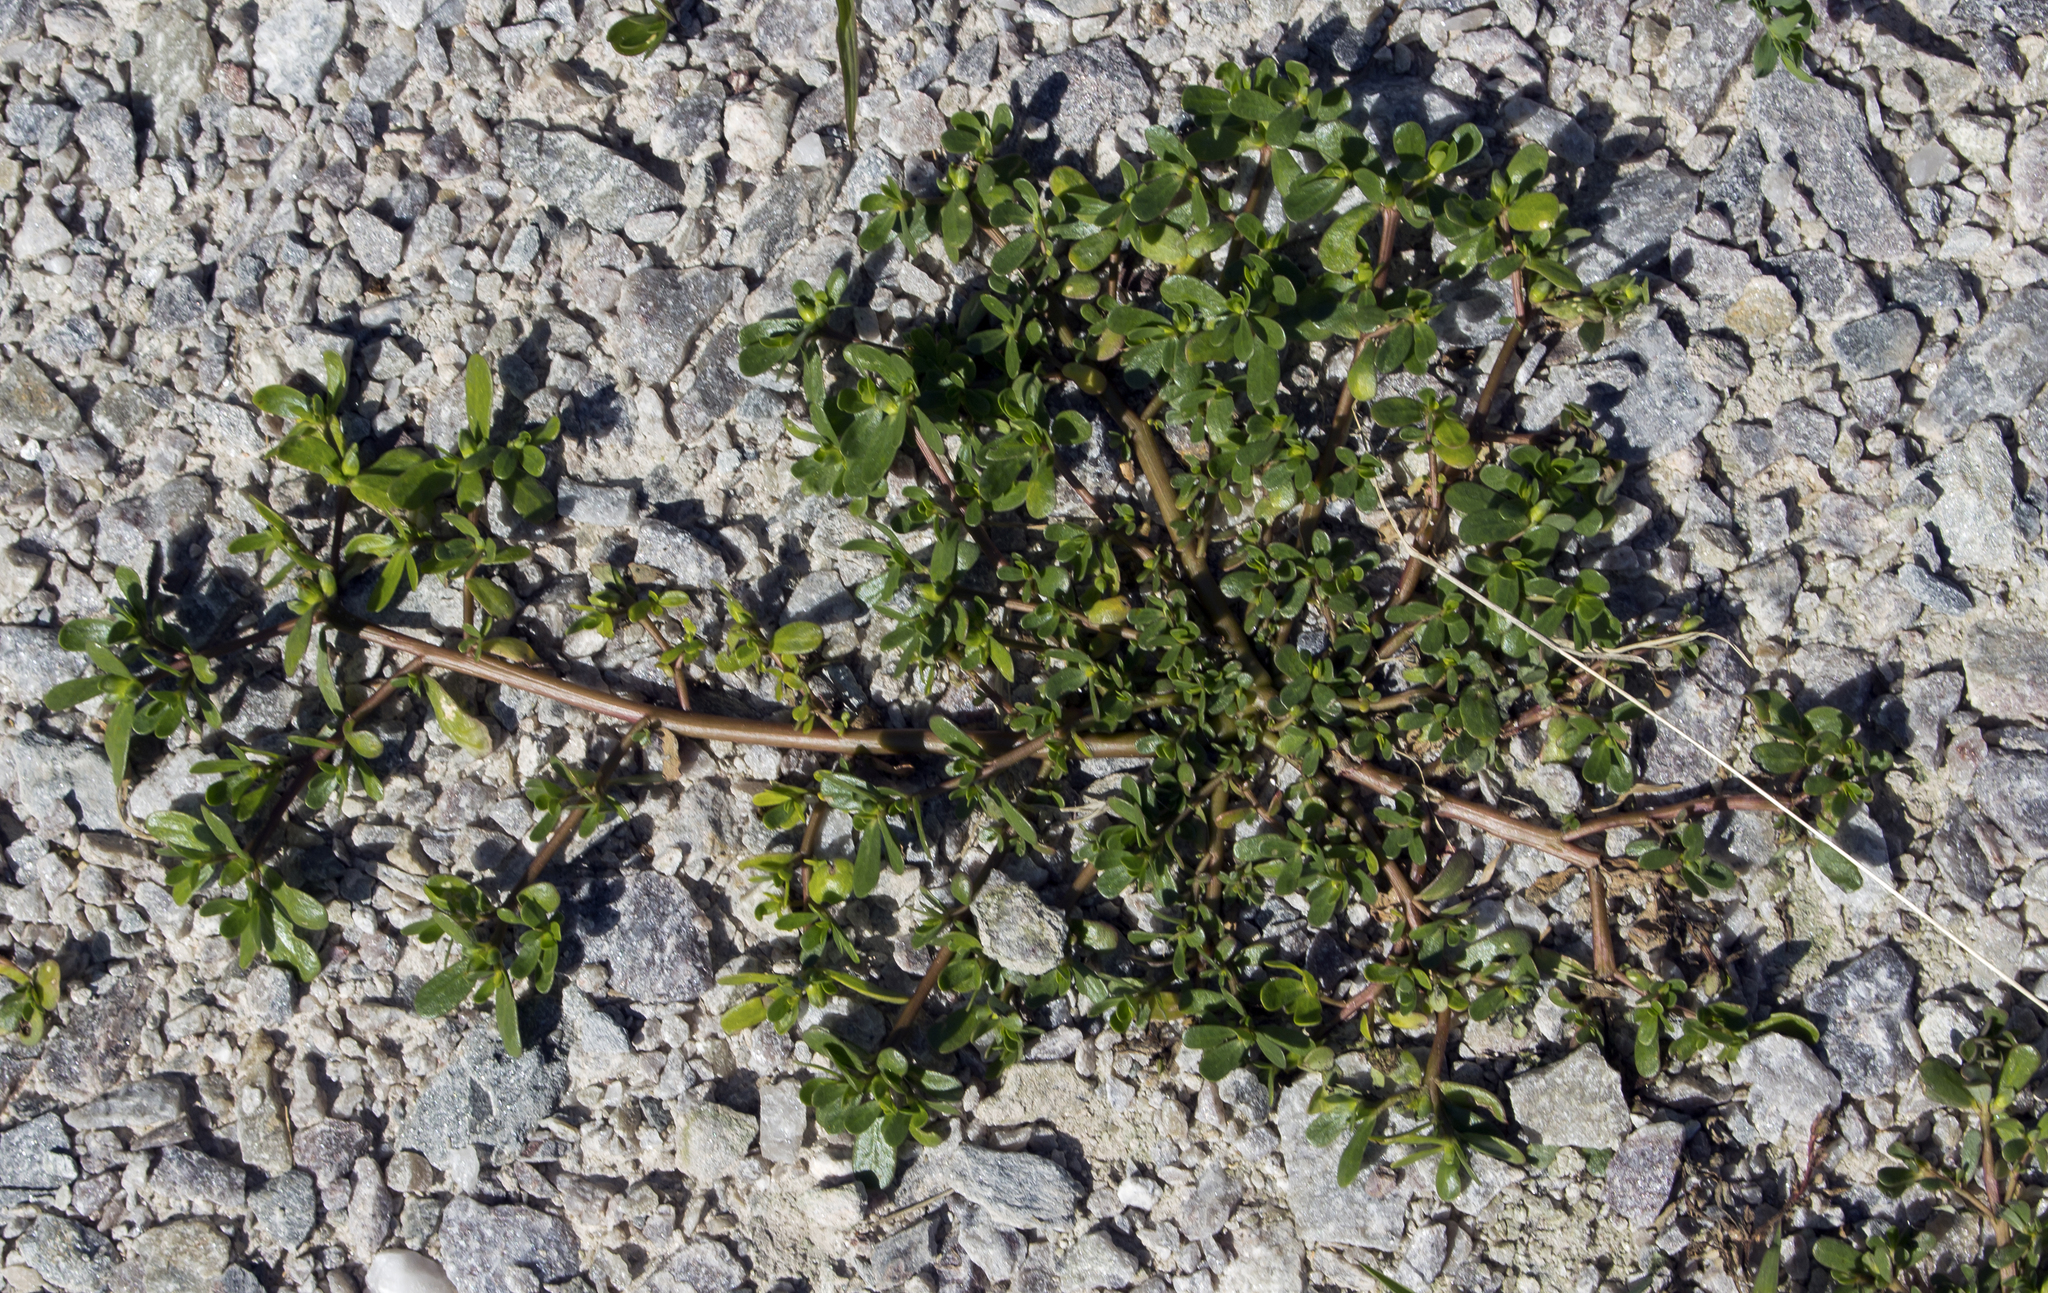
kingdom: Plantae
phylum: Tracheophyta
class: Magnoliopsida
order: Caryophyllales
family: Portulacaceae
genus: Portulaca
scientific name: Portulaca oleracea
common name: Common purslane
